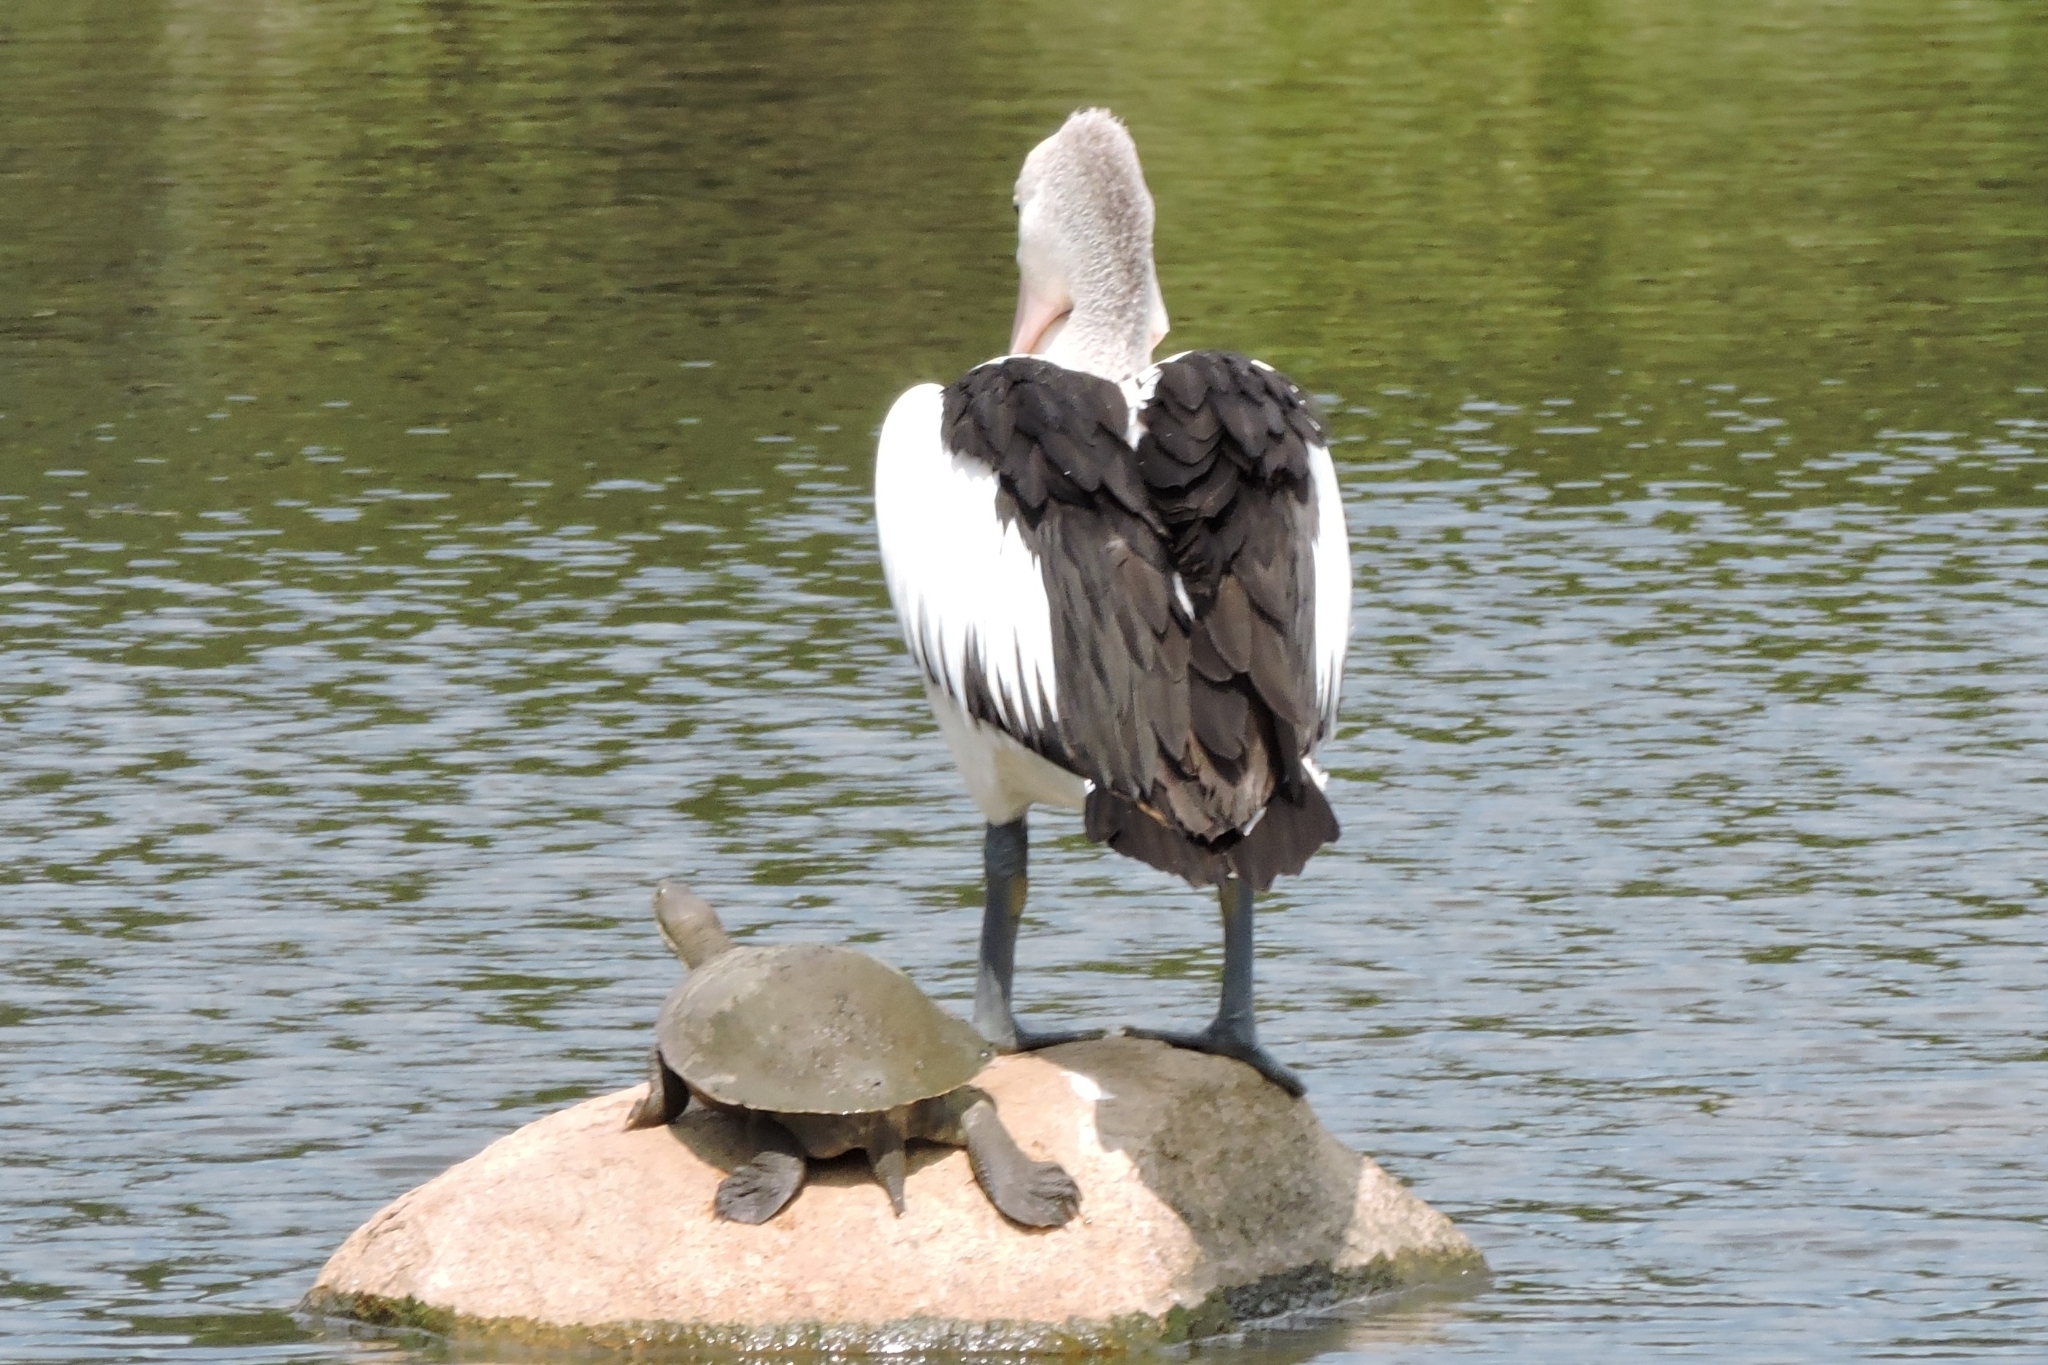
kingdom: Animalia
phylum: Chordata
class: Aves
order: Pelecaniformes
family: Pelecanidae
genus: Pelecanus
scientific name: Pelecanus conspicillatus
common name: Australian pelican
